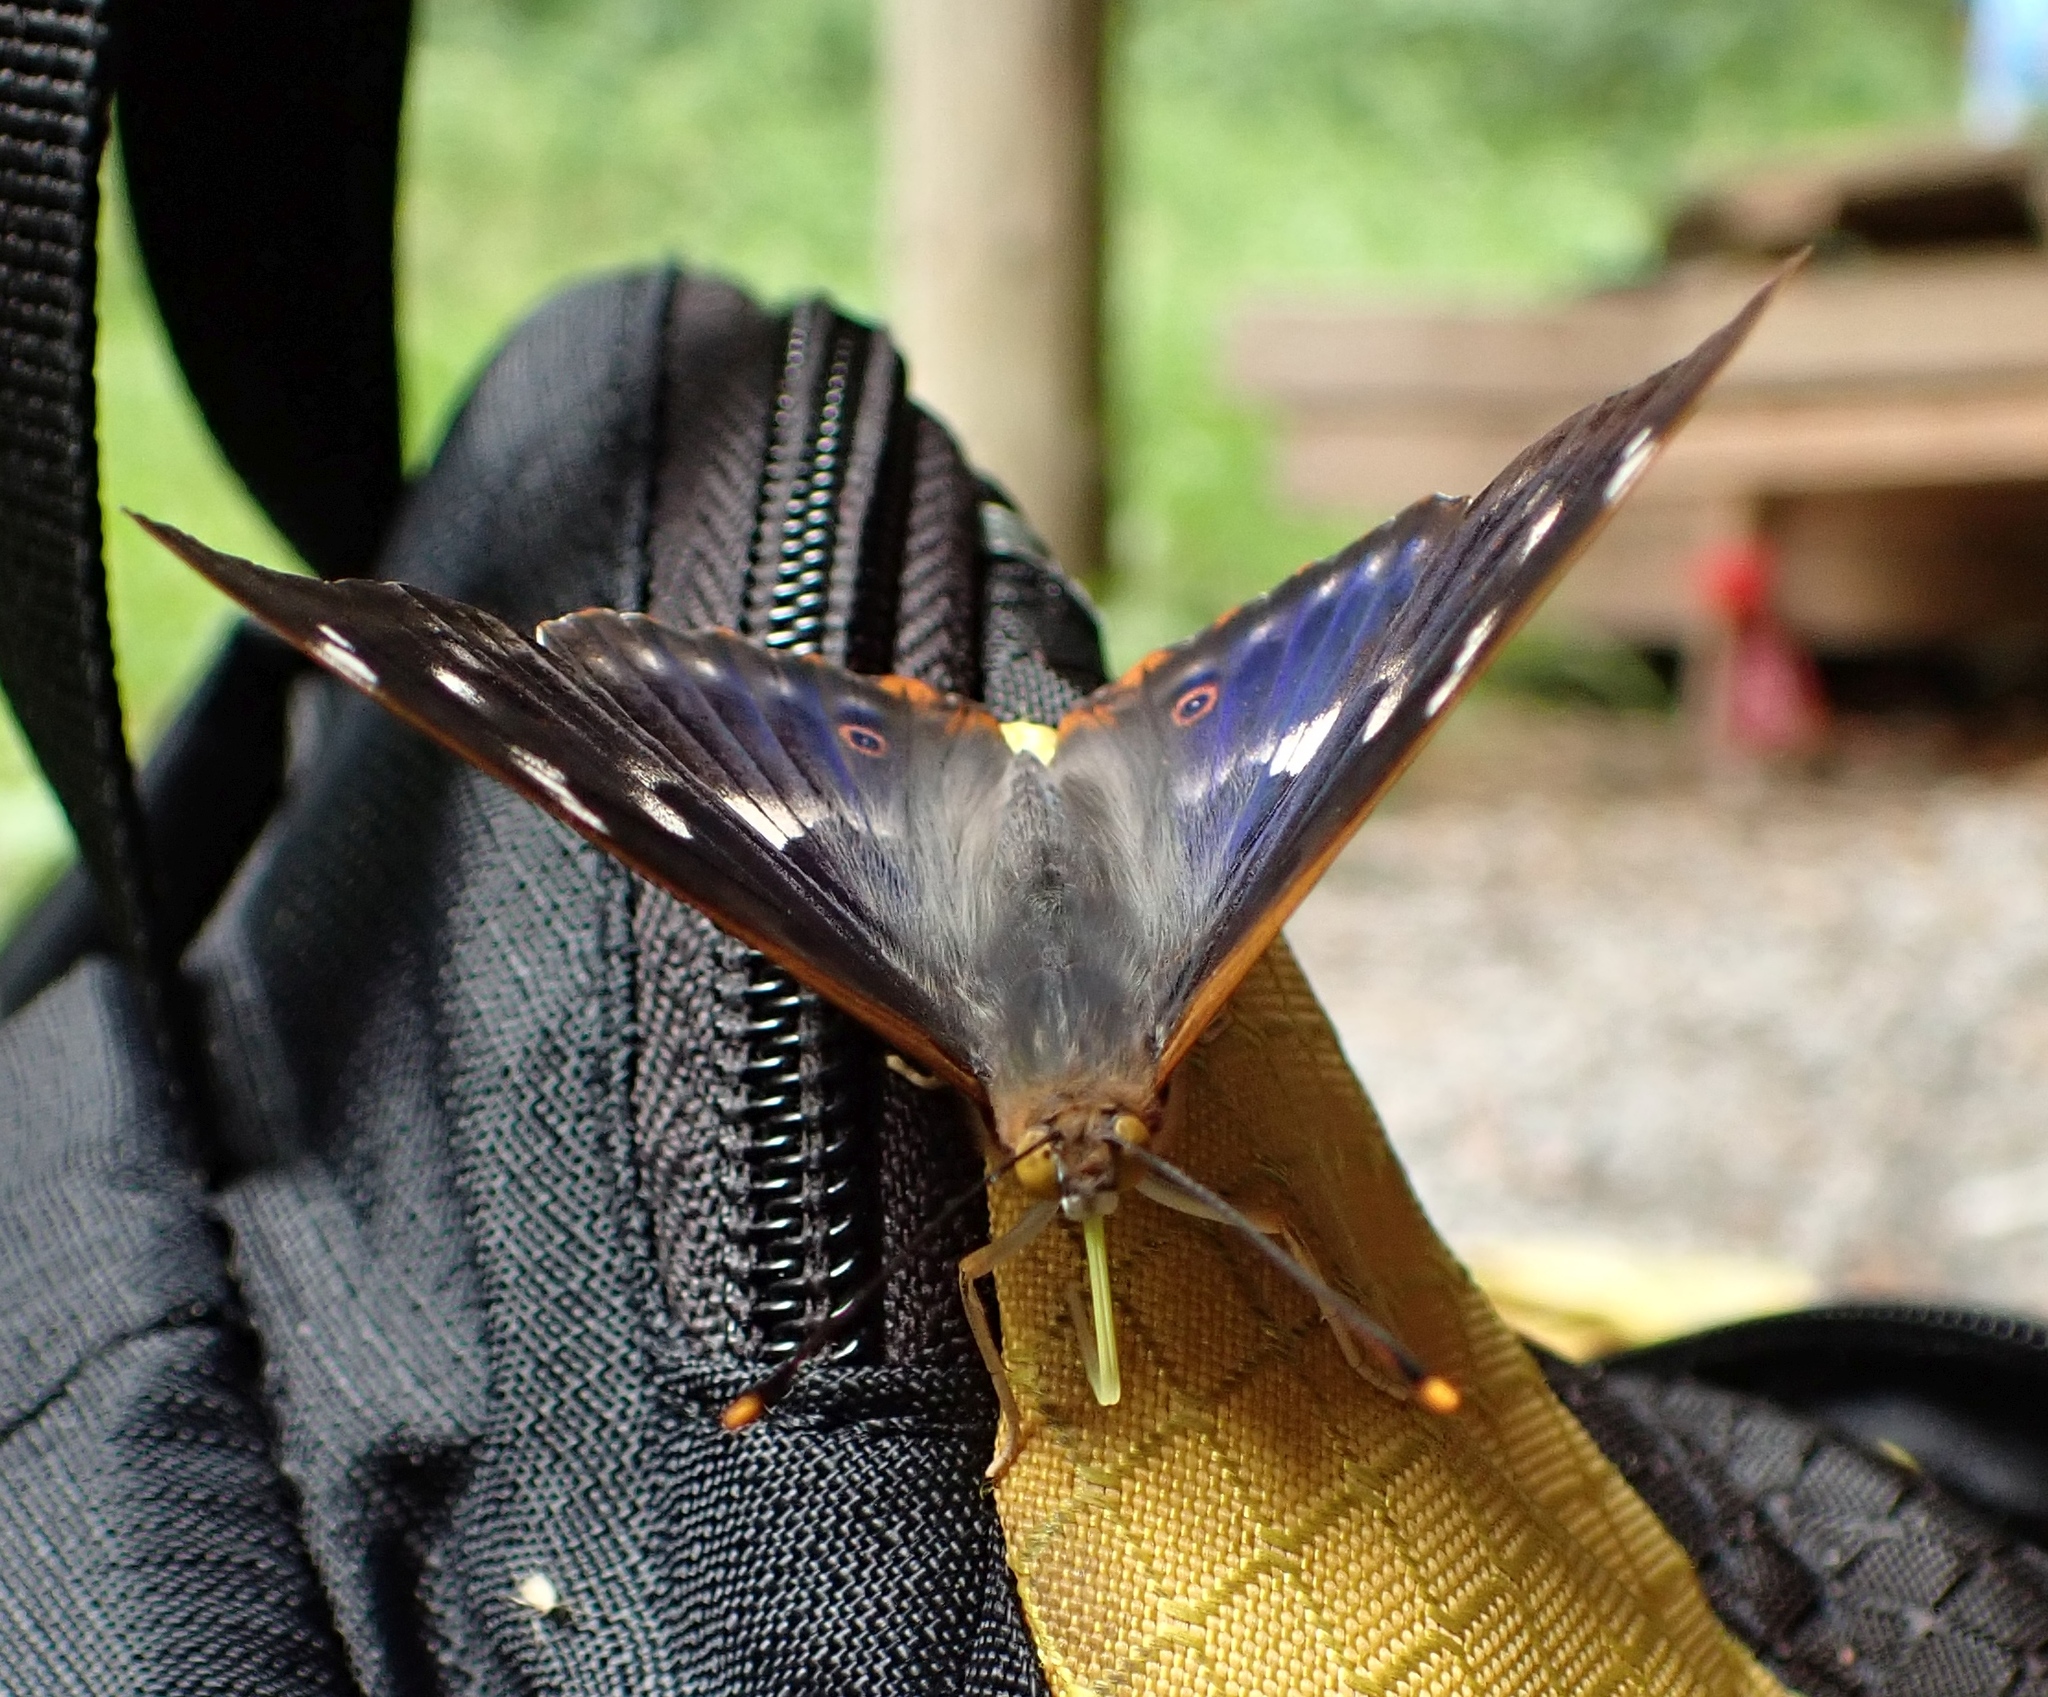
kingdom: Animalia
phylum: Arthropoda
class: Insecta
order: Lepidoptera
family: Nymphalidae
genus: Apatura
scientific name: Apatura ilia
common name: Lesser purple emperor
